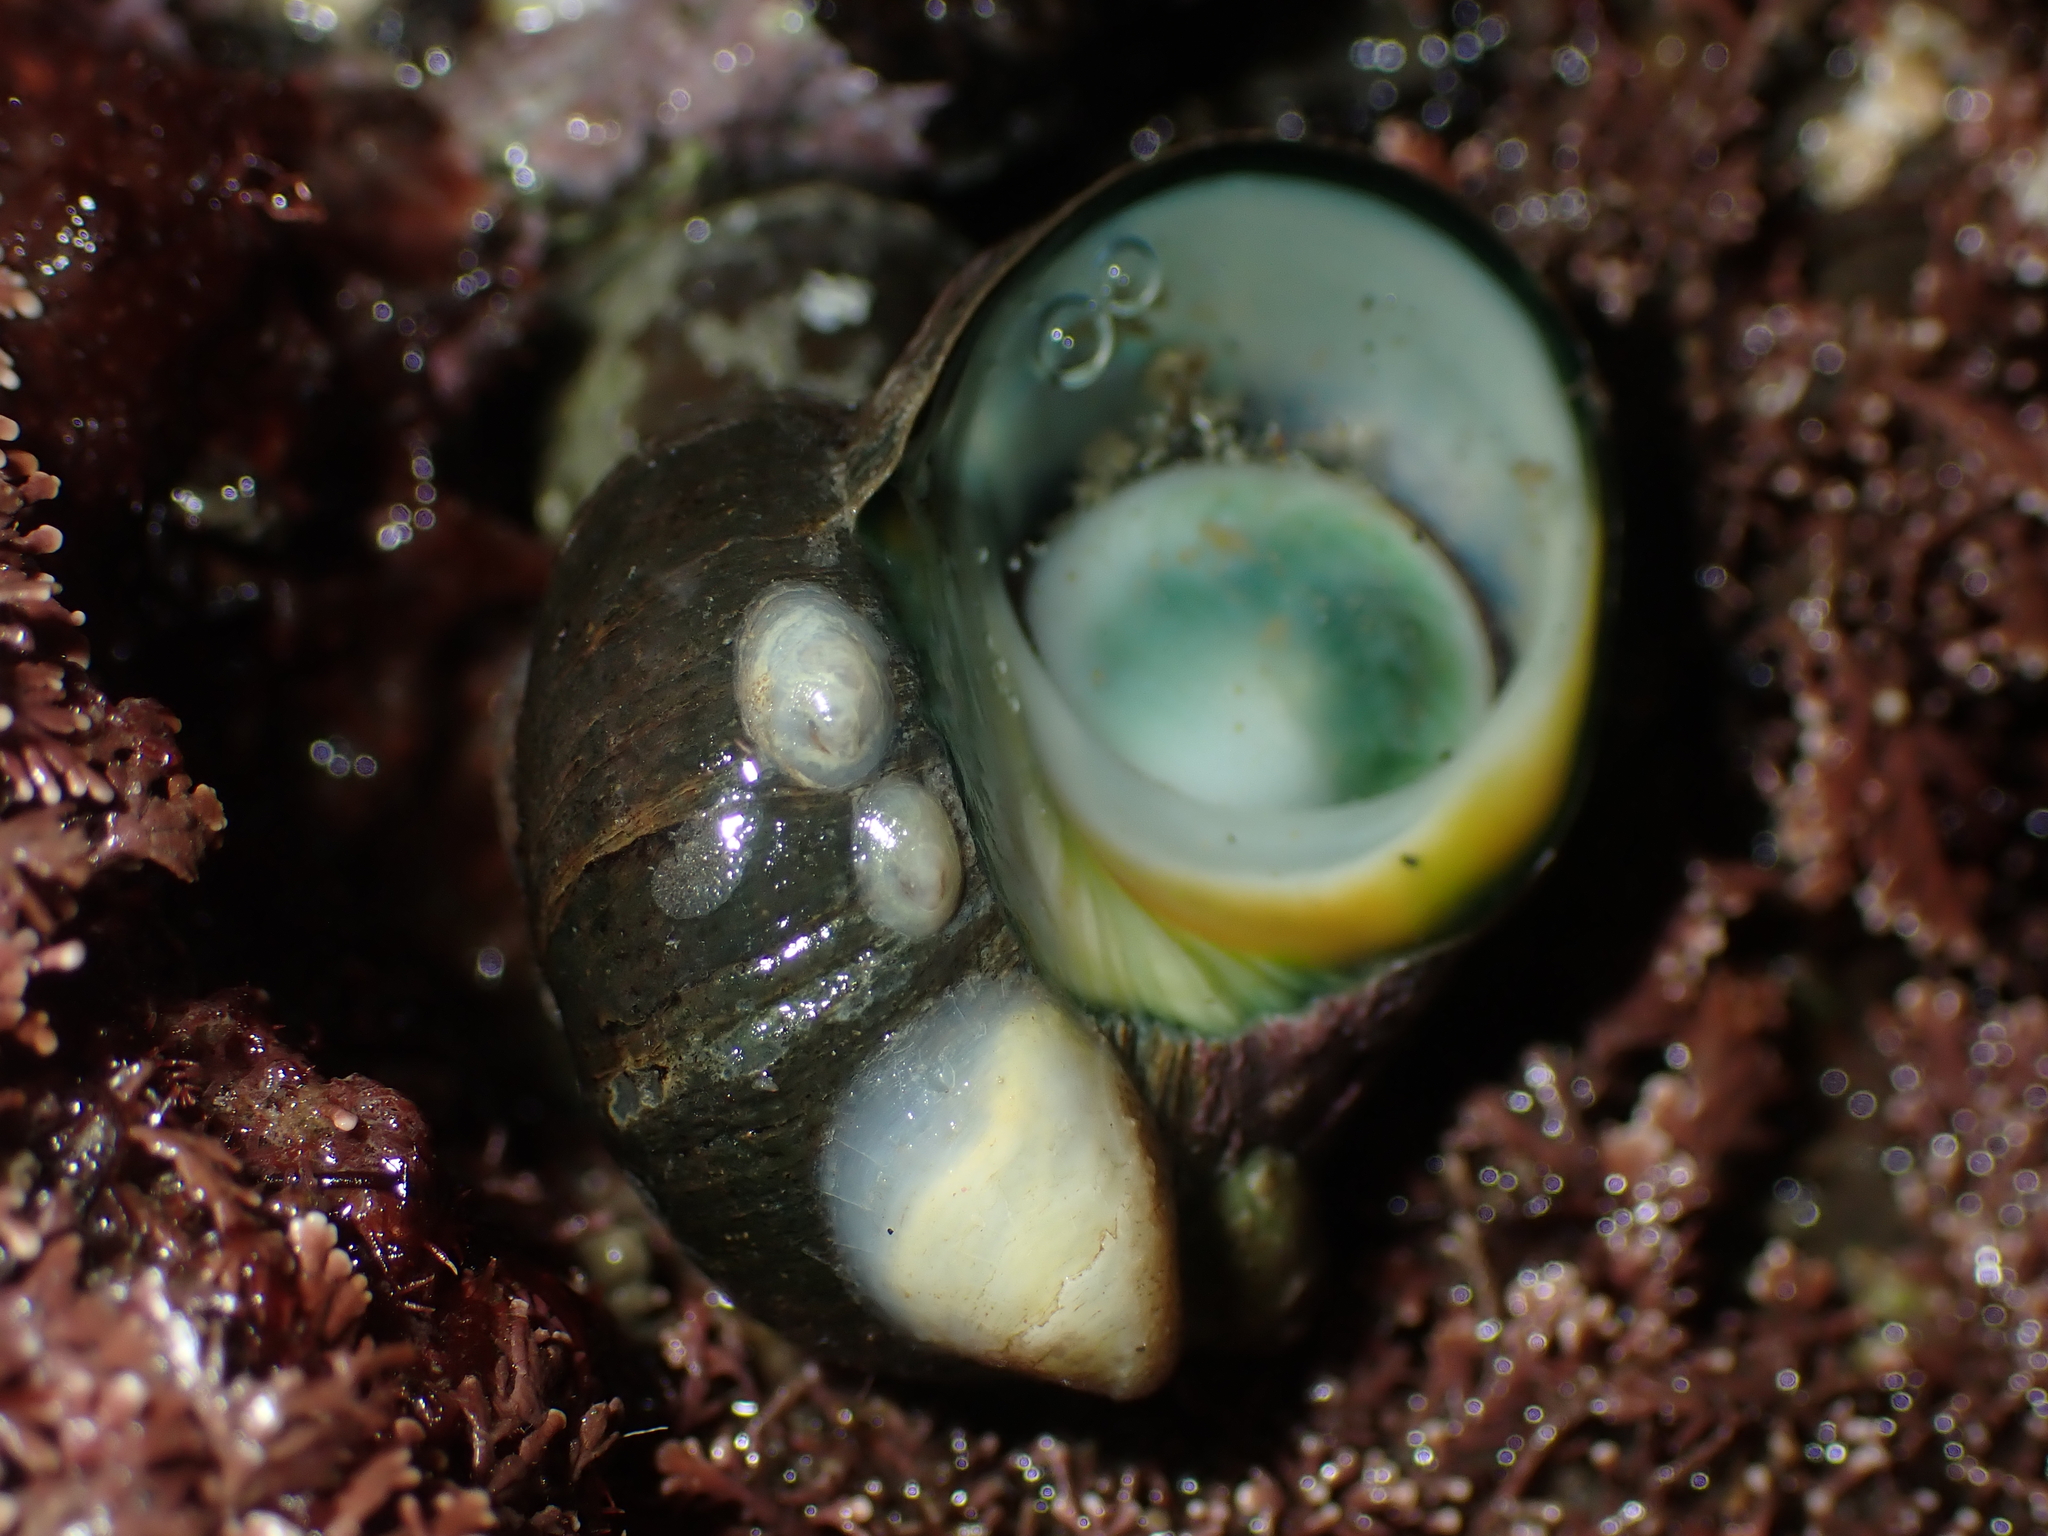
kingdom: Animalia
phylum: Mollusca
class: Gastropoda
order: Trochida
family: Turbinidae
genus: Lunella
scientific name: Lunella smaragda
